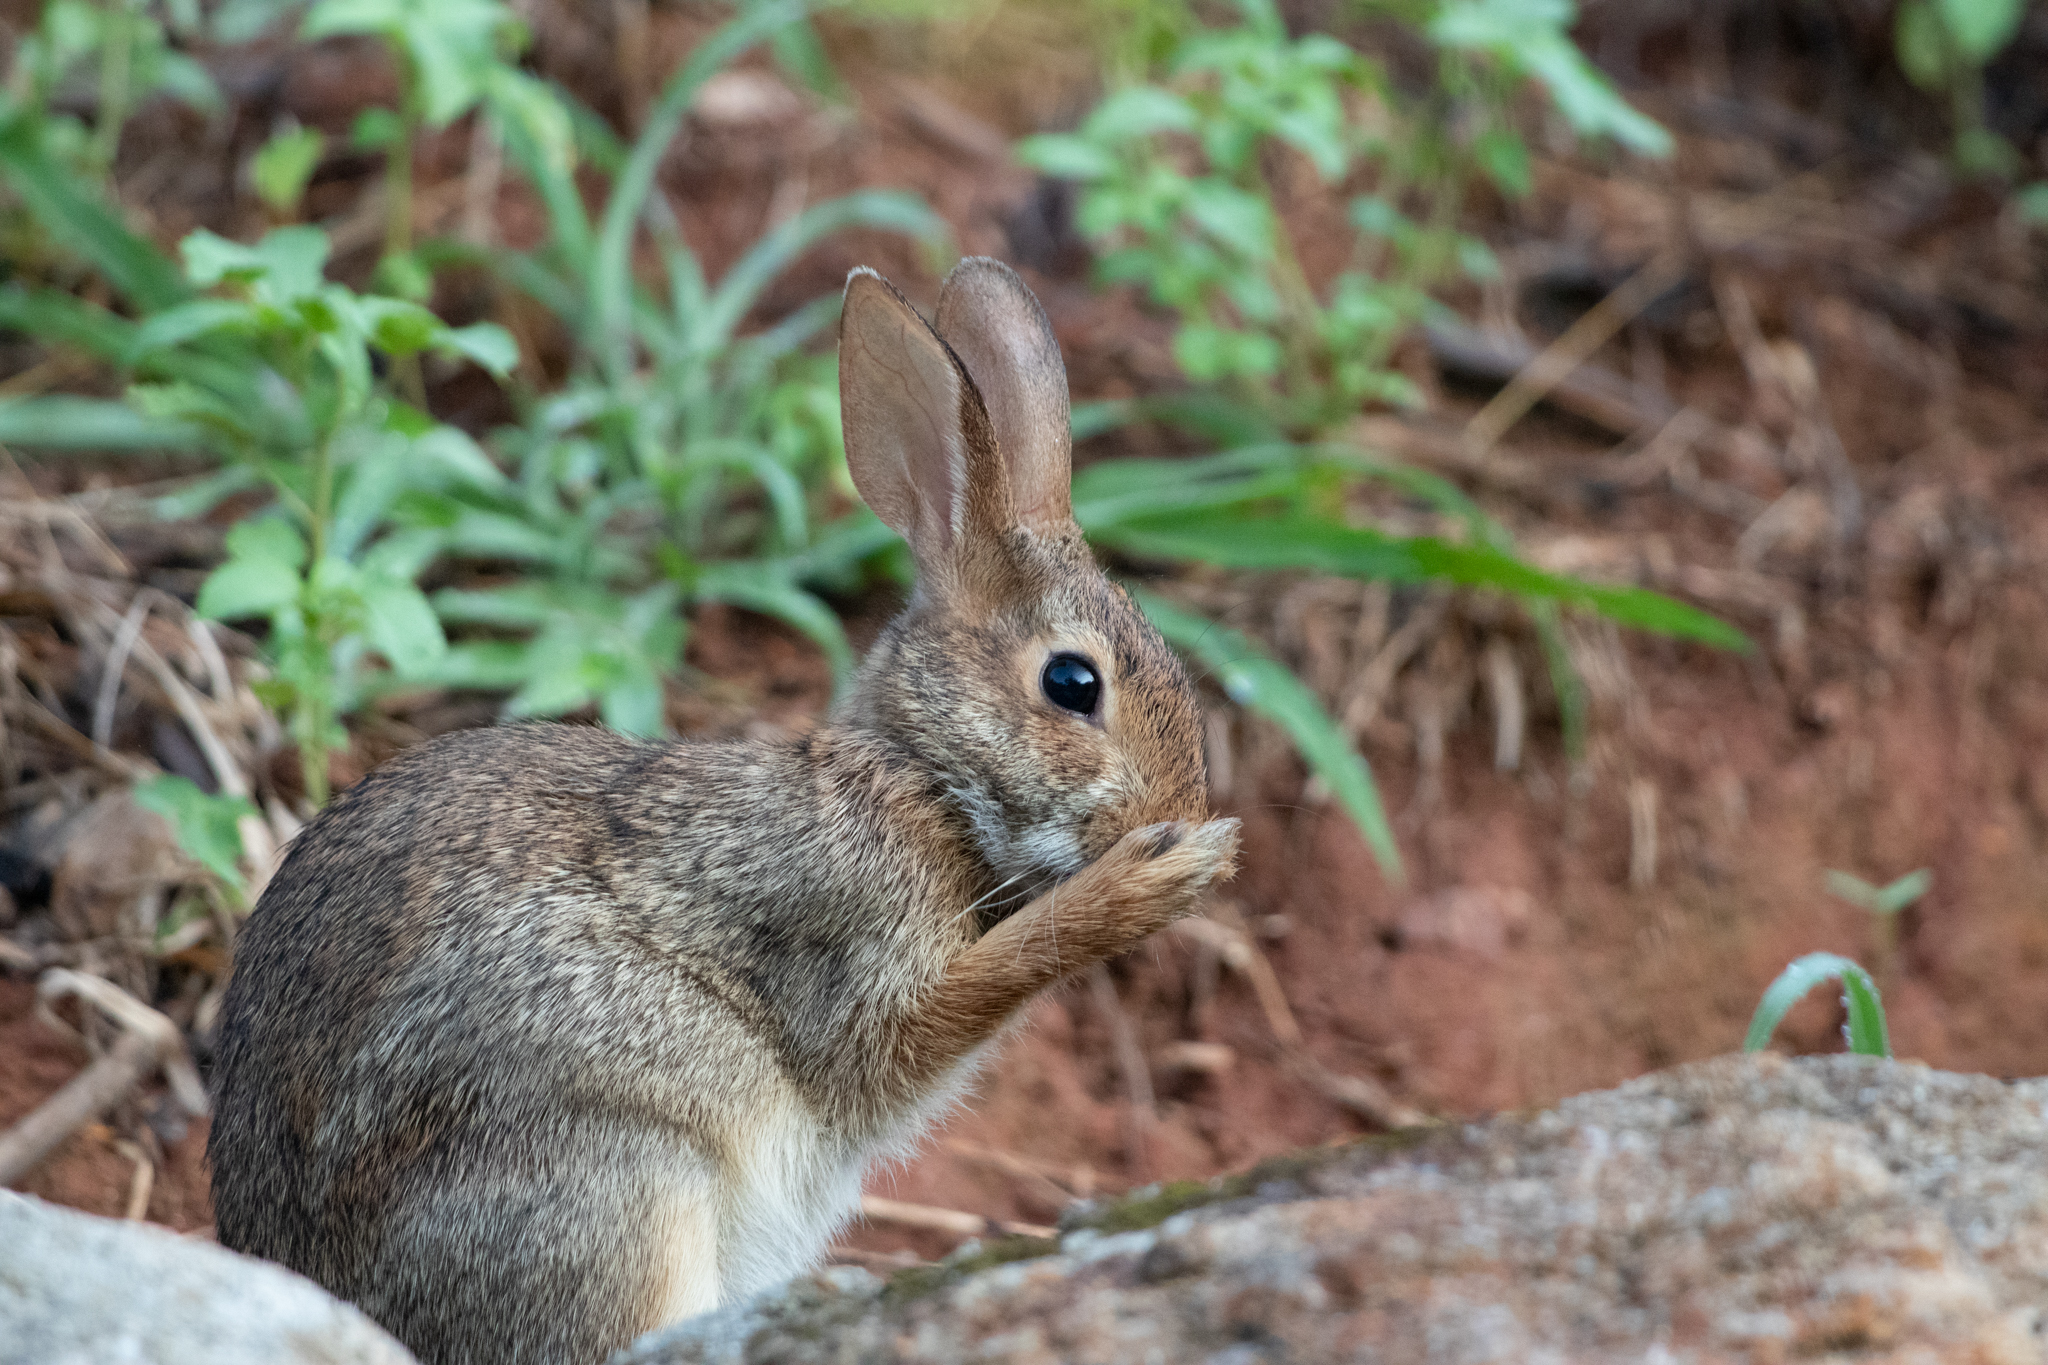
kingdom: Animalia
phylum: Chordata
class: Mammalia
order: Lagomorpha
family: Leporidae
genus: Sylvilagus
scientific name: Sylvilagus floridanus
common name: Eastern cottontail
